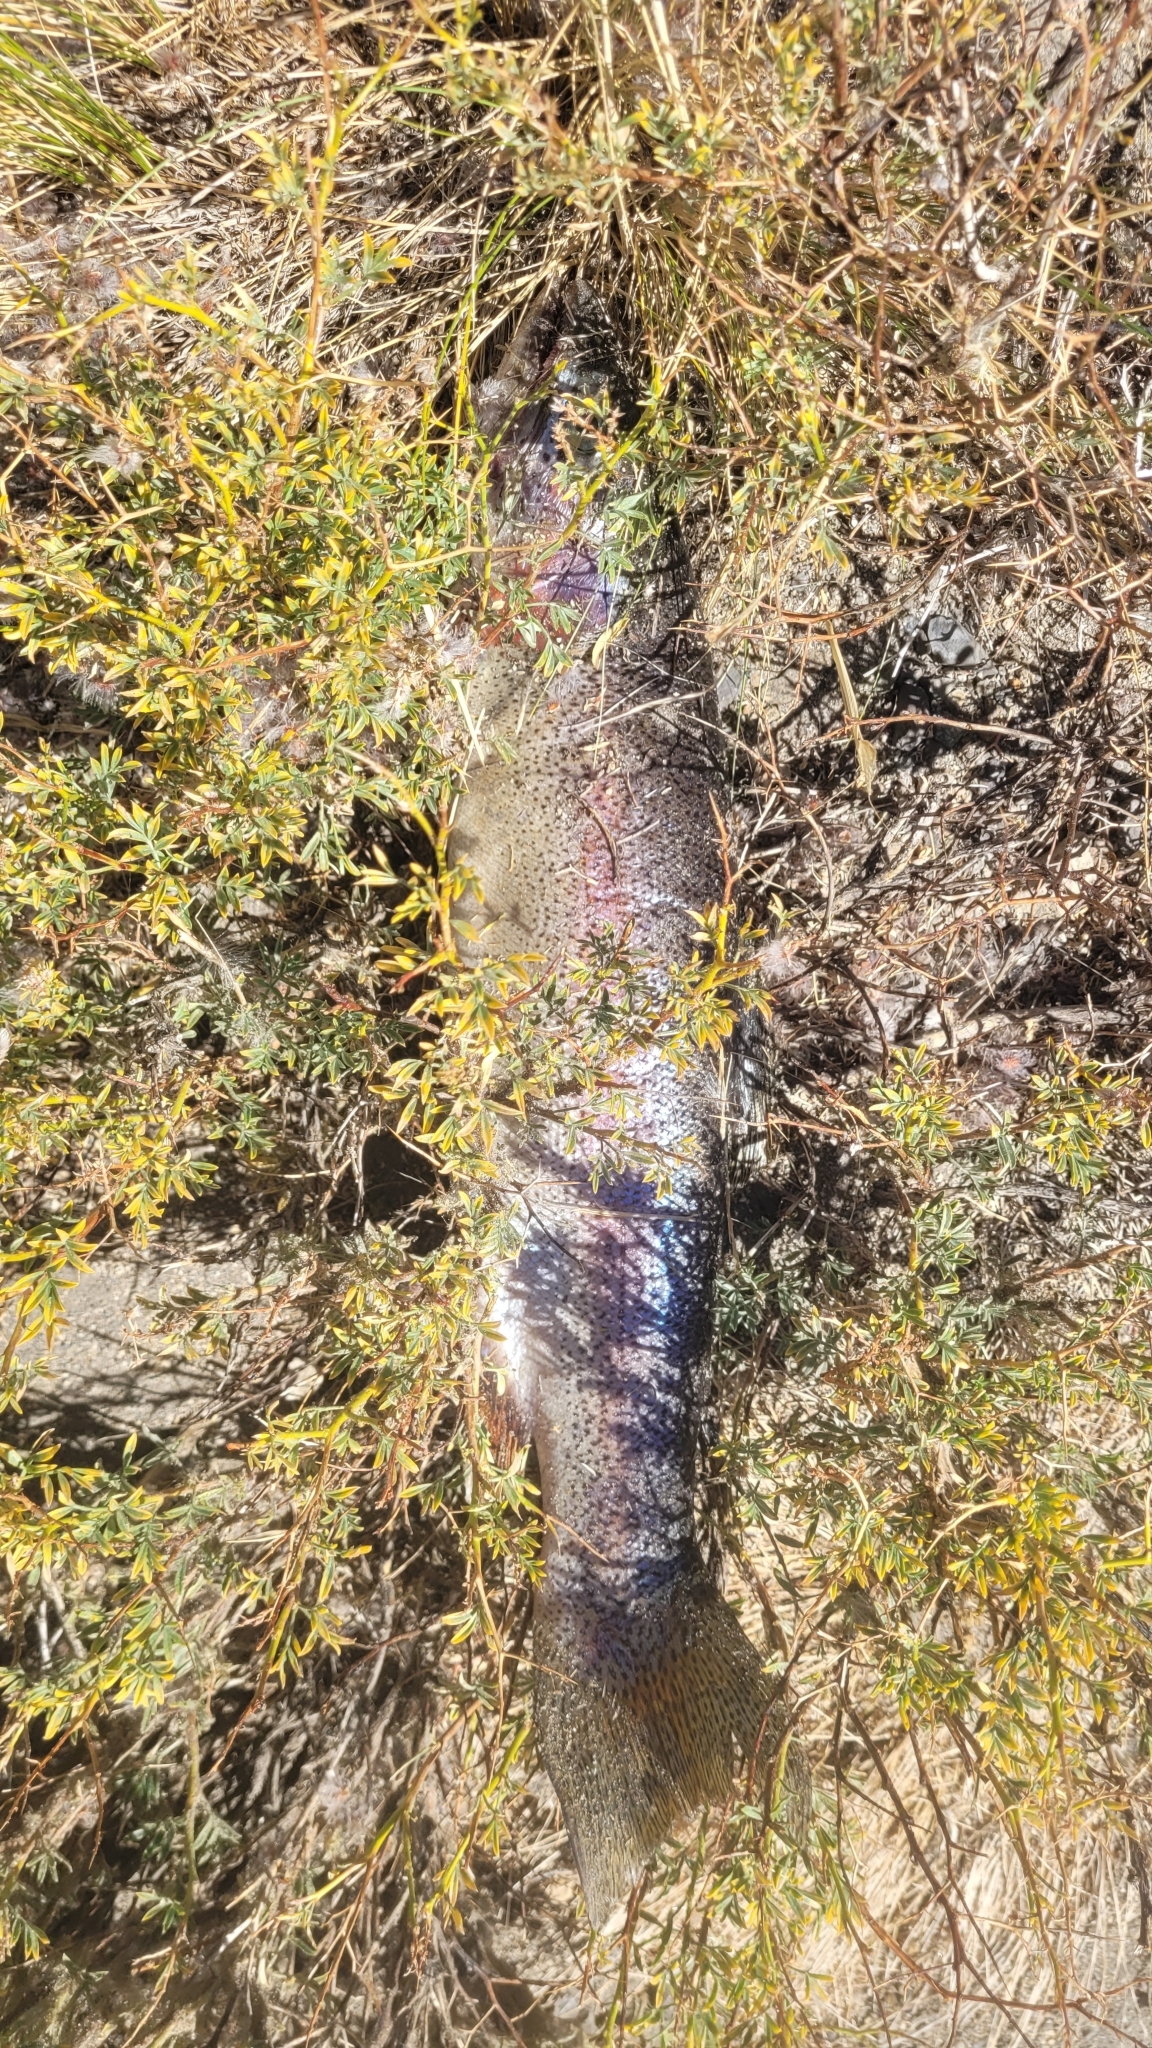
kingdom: Animalia
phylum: Chordata
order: Salmoniformes
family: Salmonidae
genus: Oncorhynchus
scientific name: Oncorhynchus mykiss
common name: Rainbow trout
